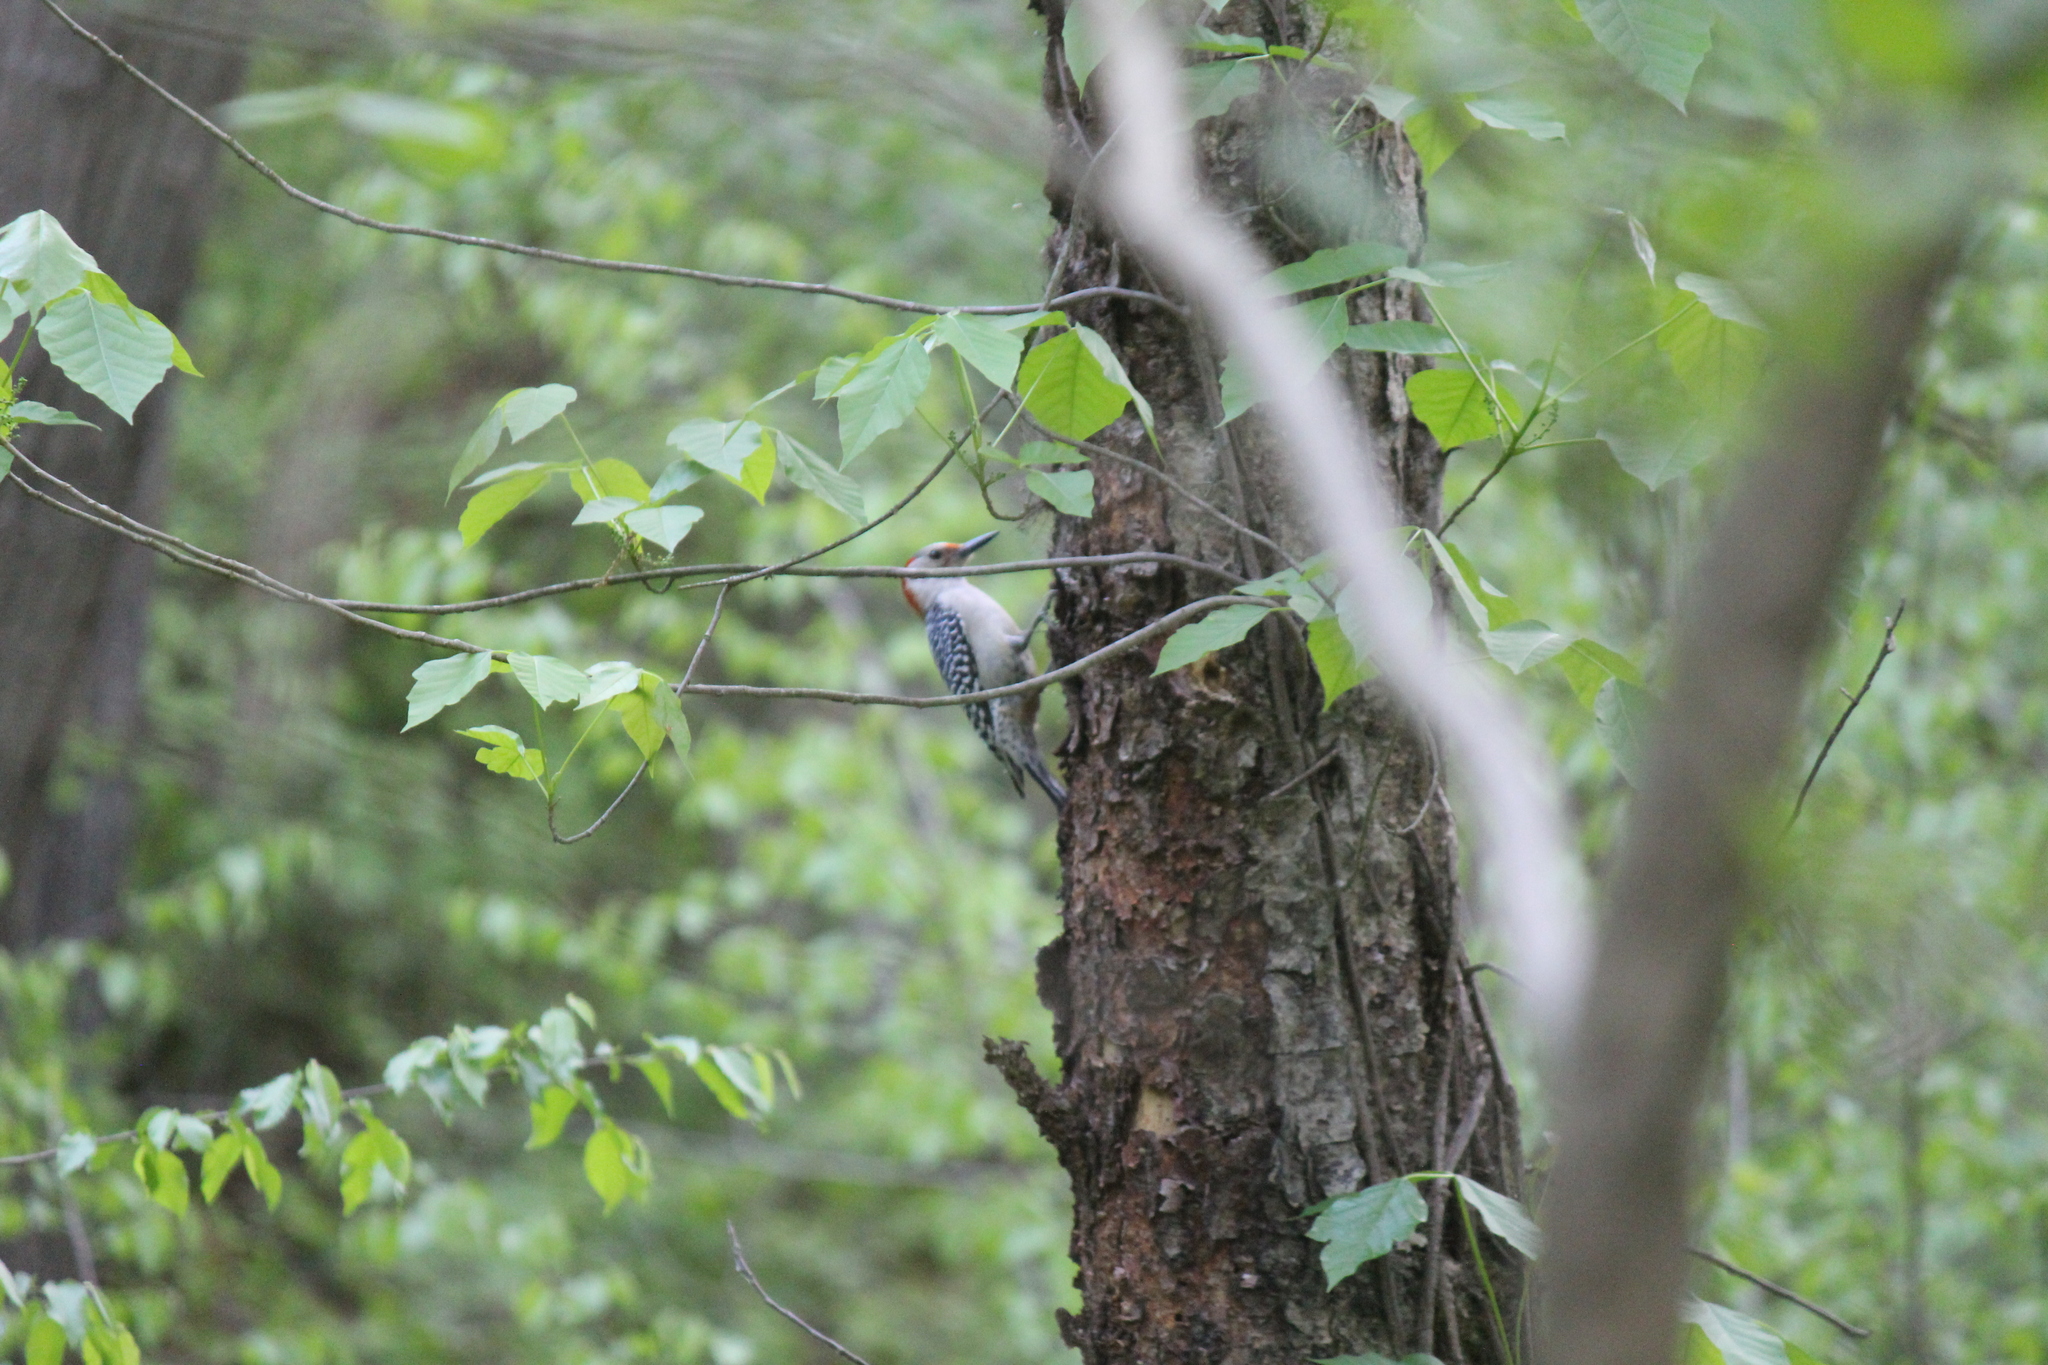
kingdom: Animalia
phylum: Chordata
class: Aves
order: Piciformes
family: Picidae
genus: Melanerpes
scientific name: Melanerpes carolinus
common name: Red-bellied woodpecker
